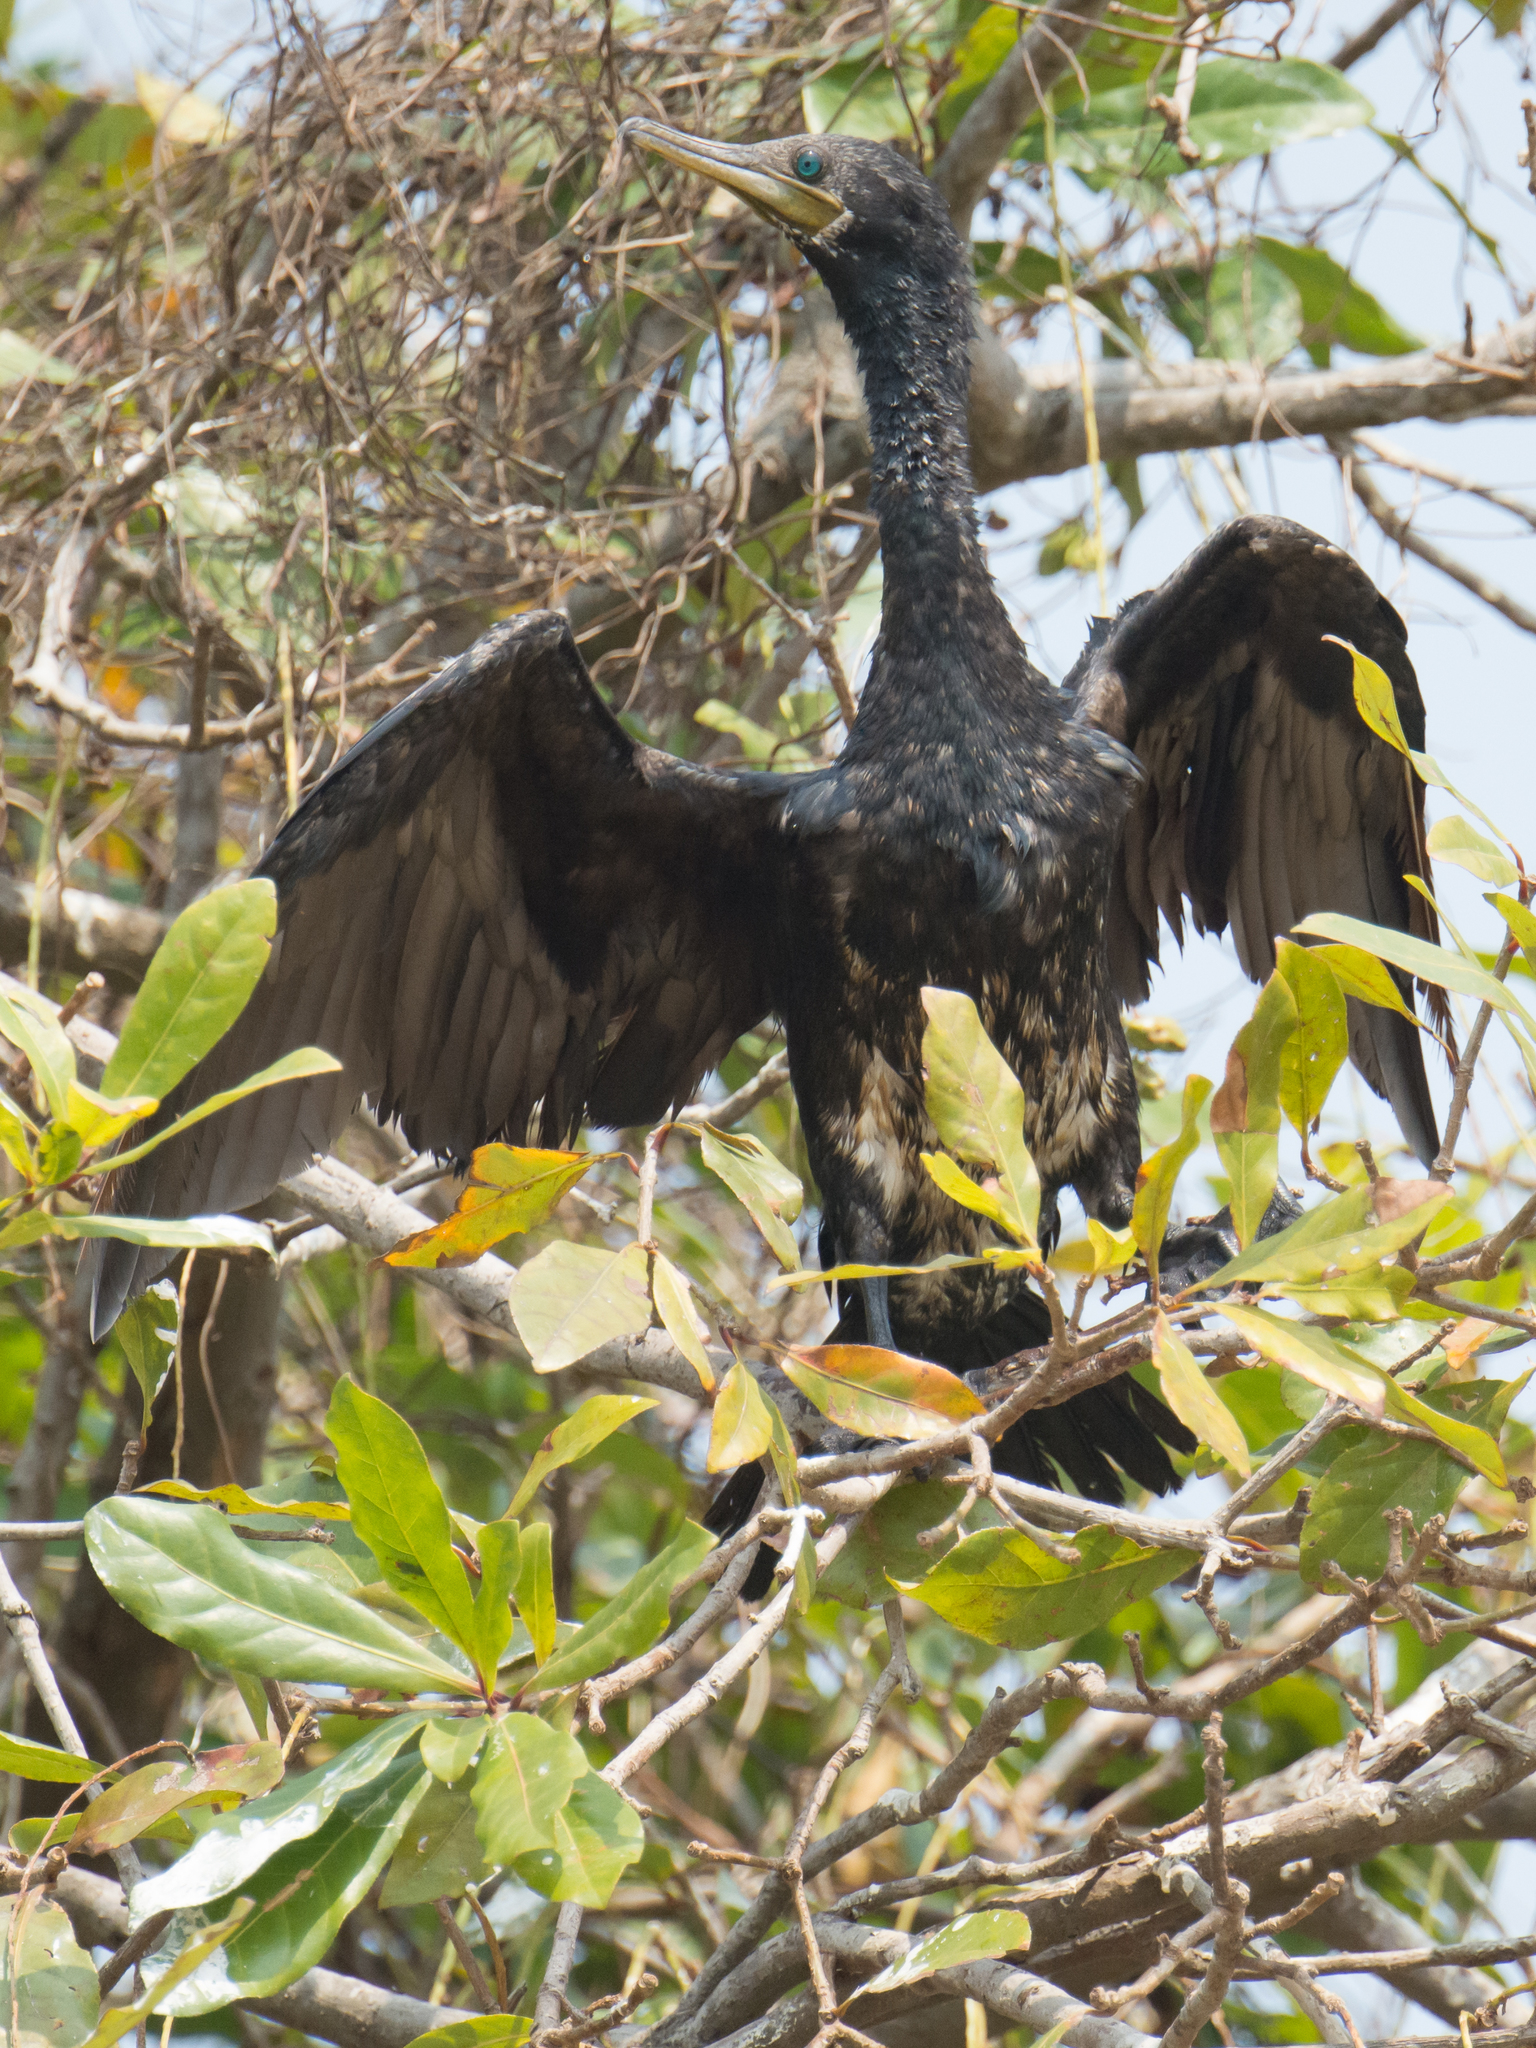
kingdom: Animalia
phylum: Chordata
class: Aves
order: Suliformes
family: Phalacrocoracidae
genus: Phalacrocorax
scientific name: Phalacrocorax fuscicollis
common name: Indian cormorant
